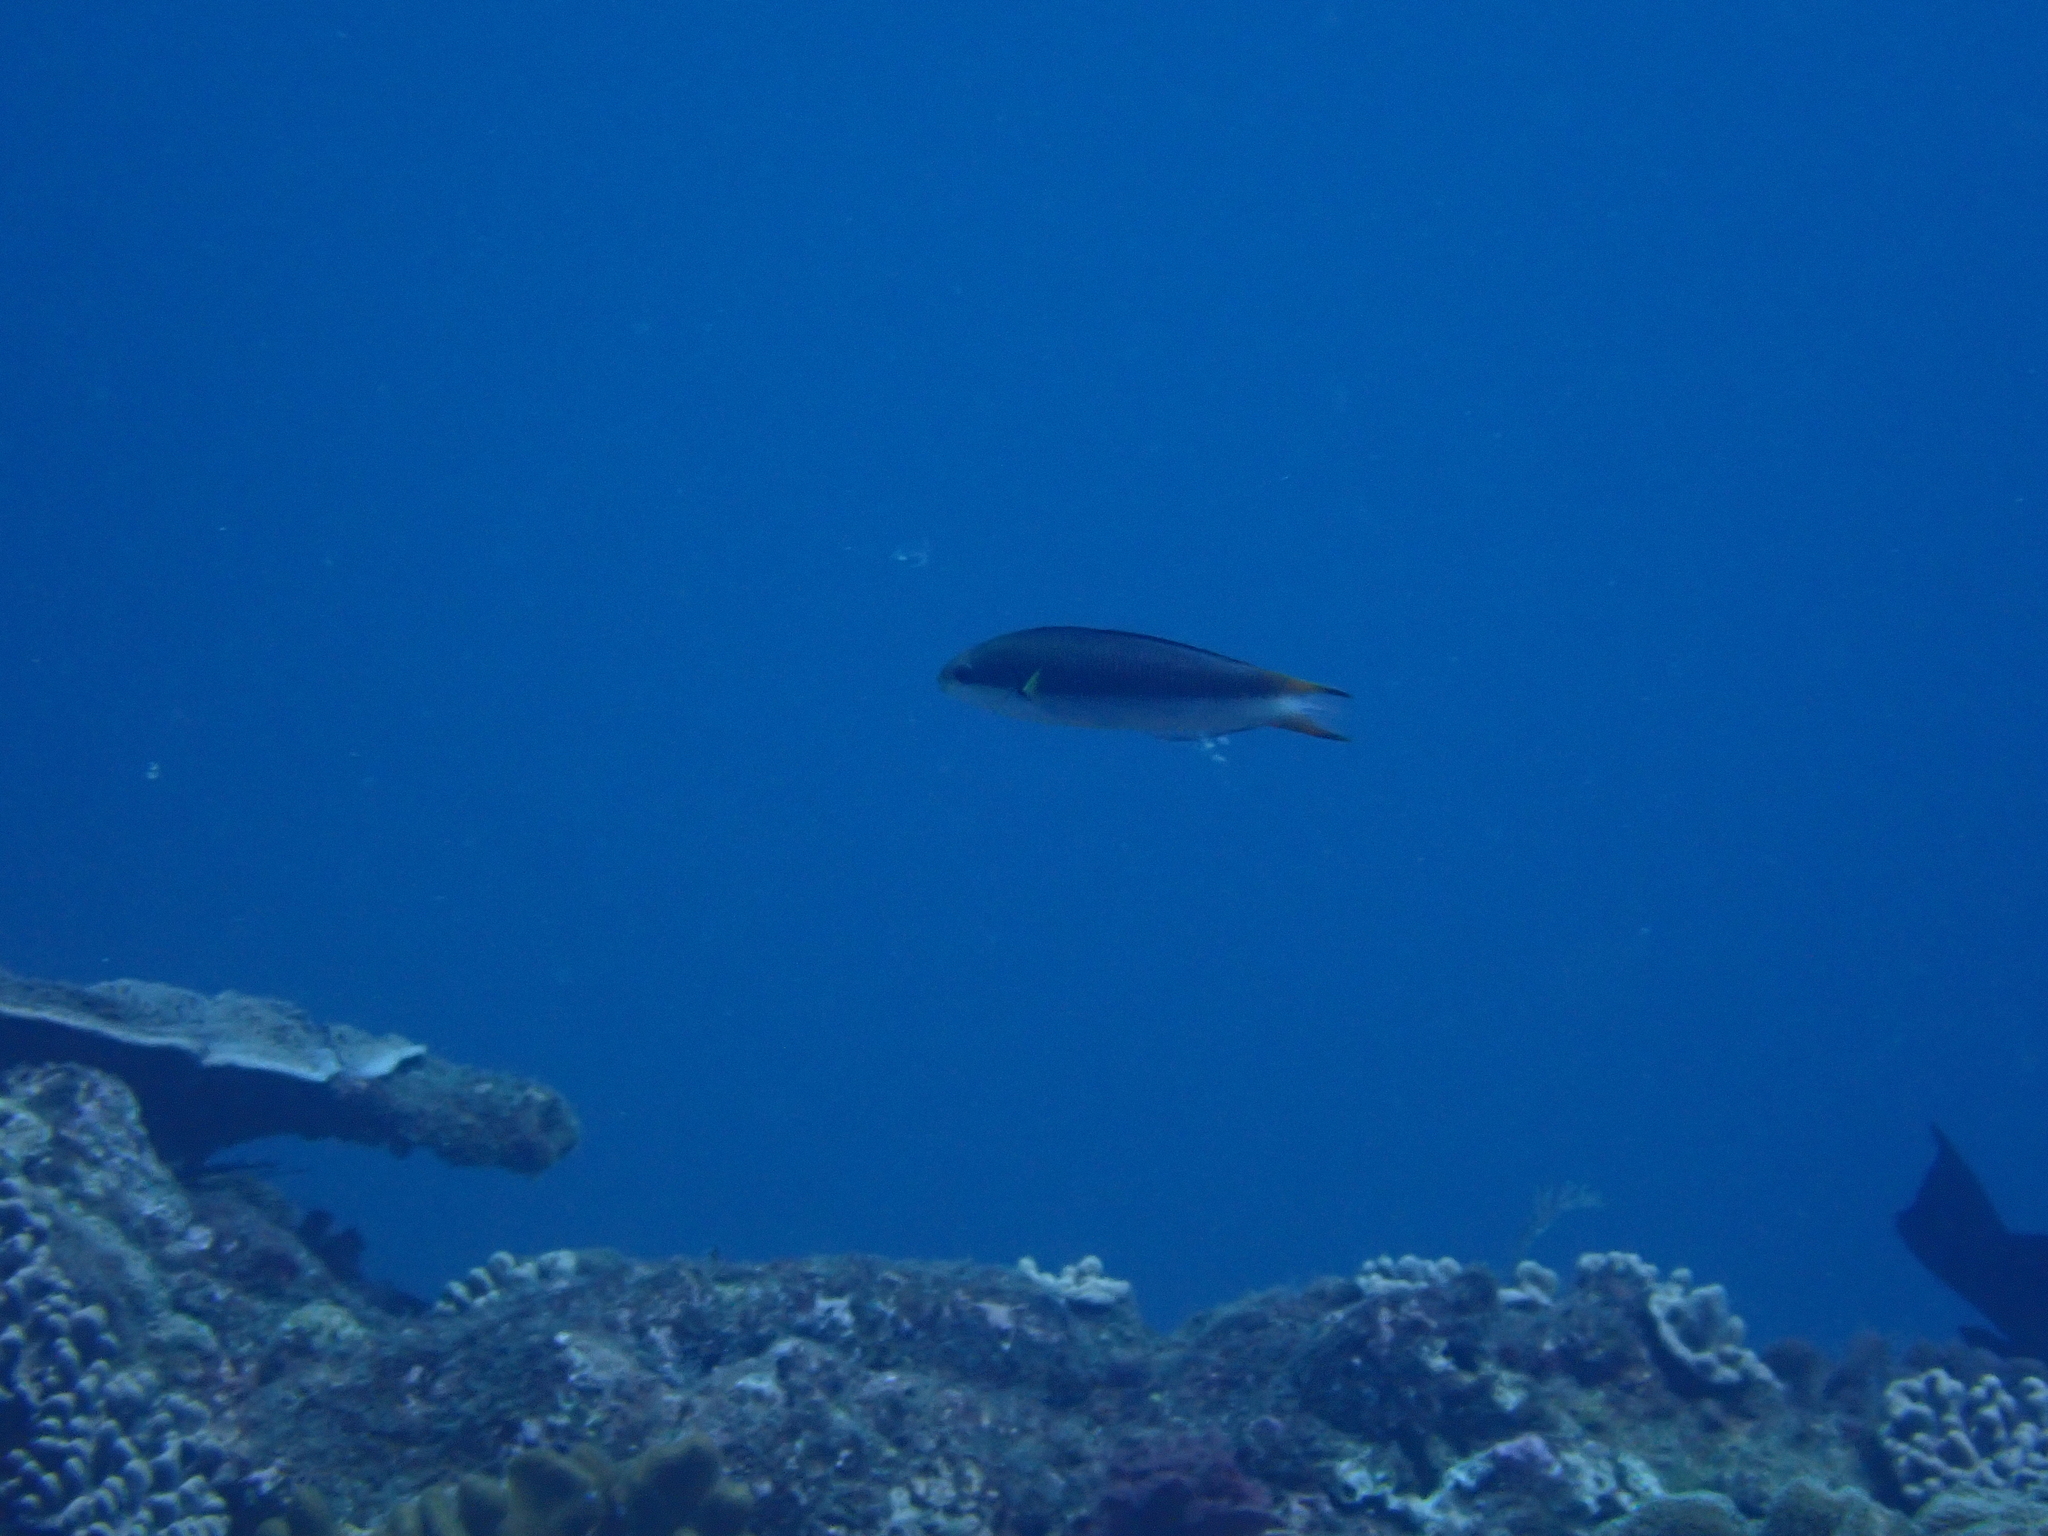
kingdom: Animalia
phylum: Chordata
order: Perciformes
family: Labridae
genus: Thalassoma
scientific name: Thalassoma amblycephalum
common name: Bluehead wrasse
